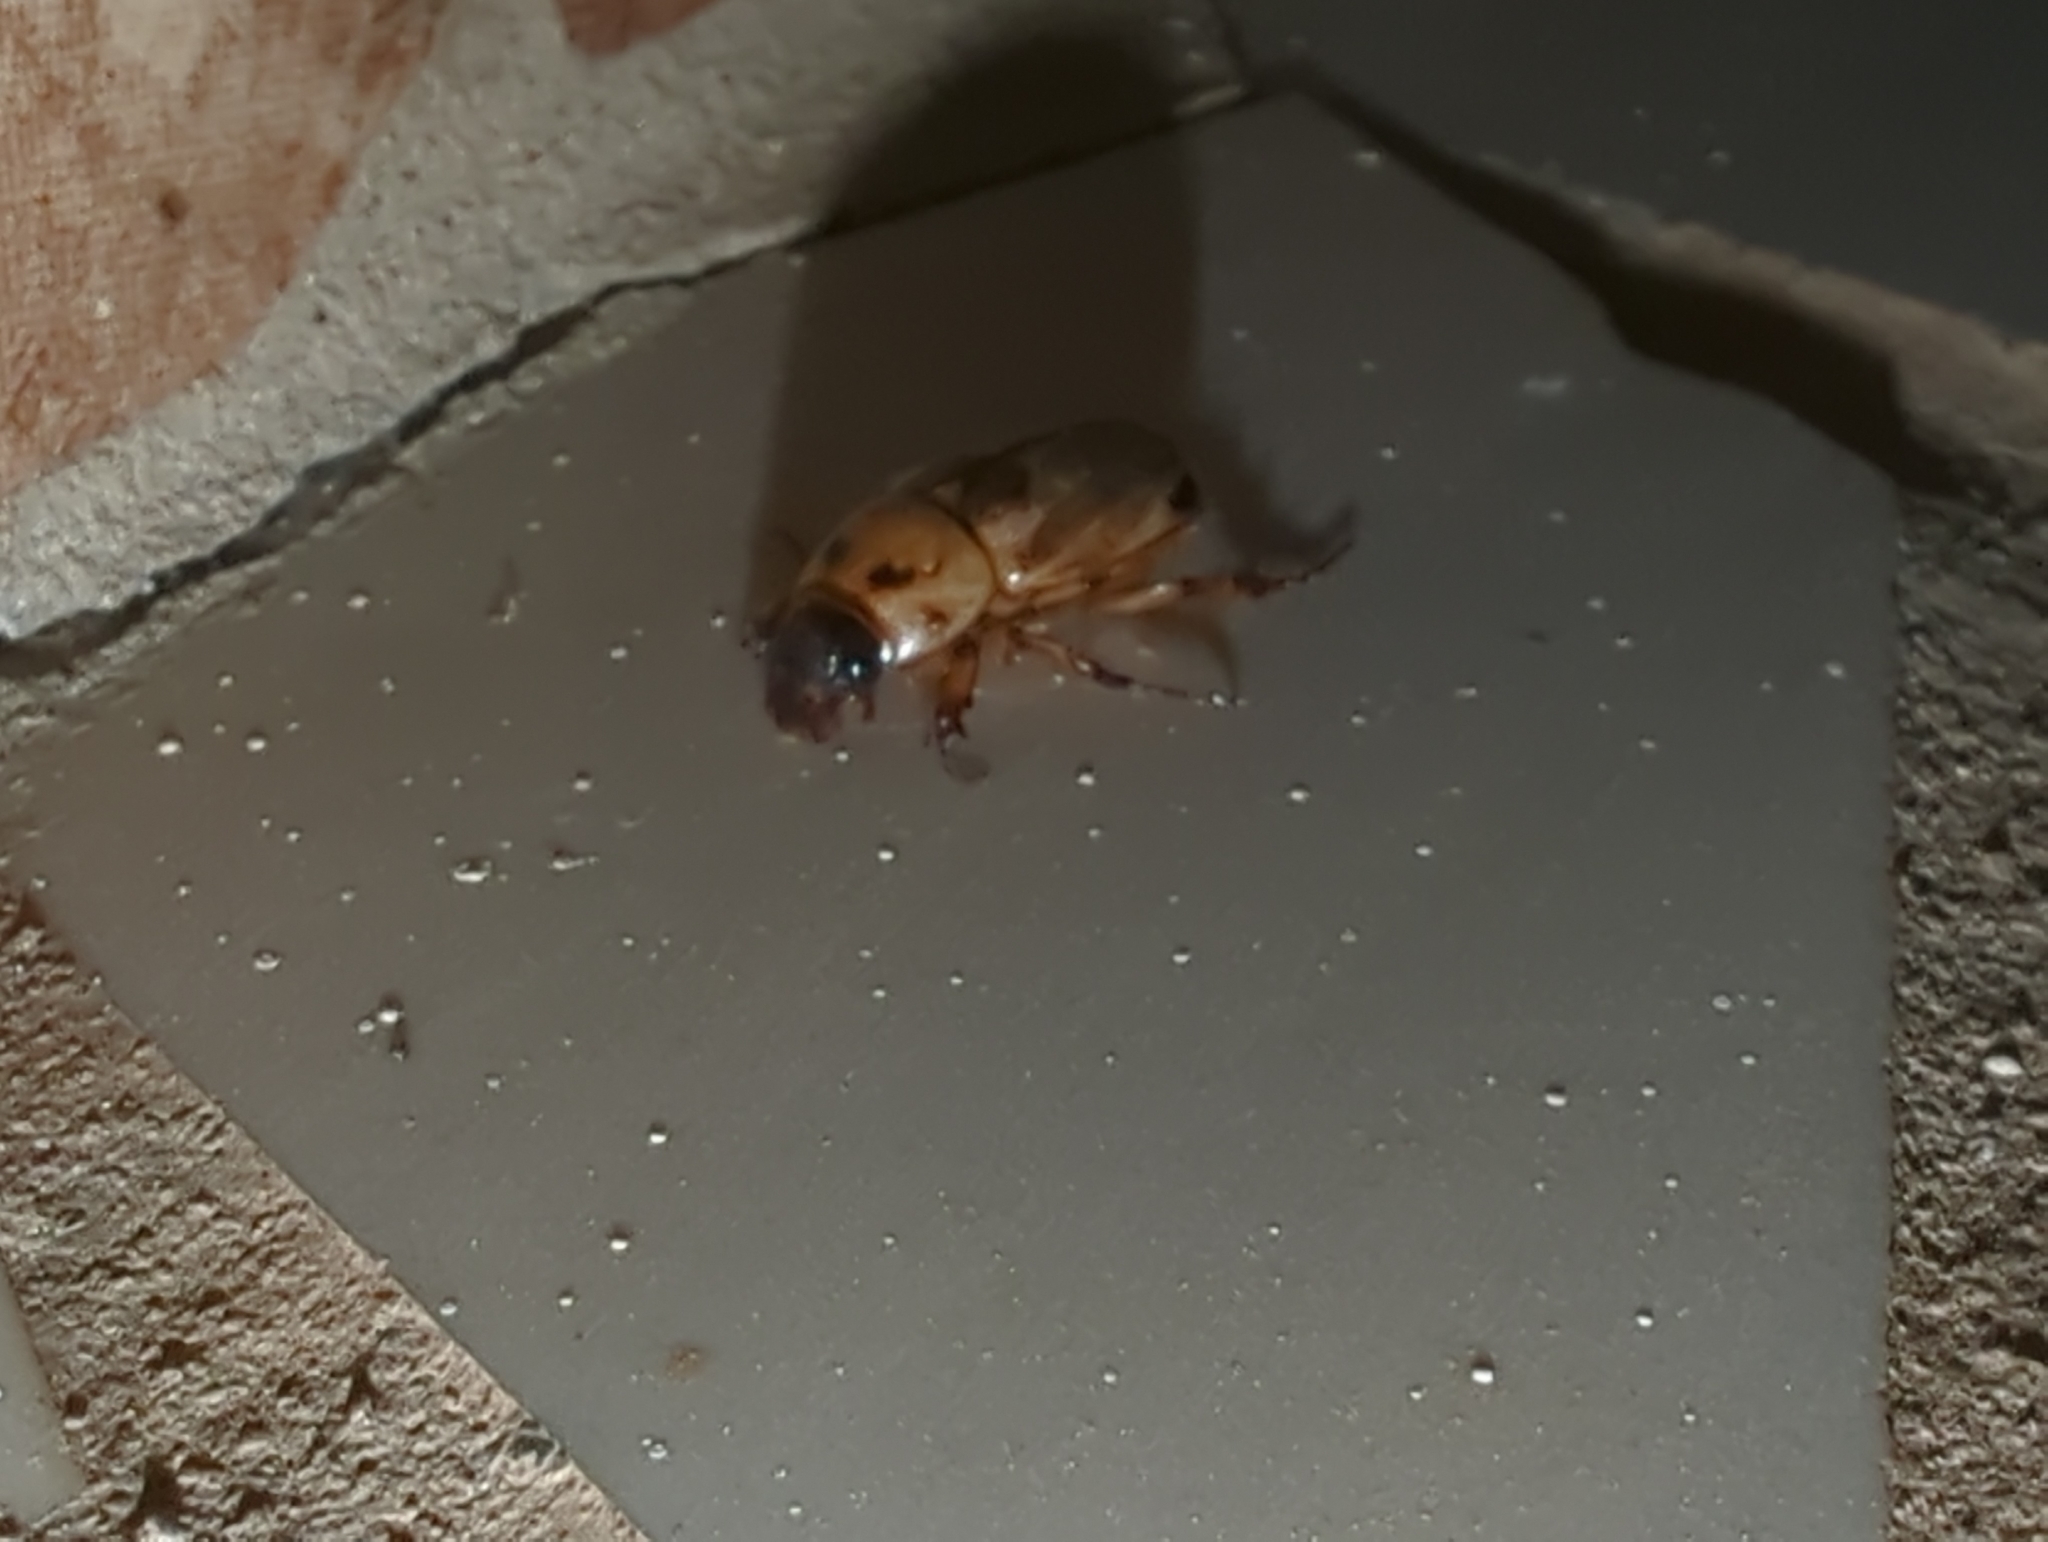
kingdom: Animalia
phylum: Arthropoda
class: Insecta
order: Coleoptera
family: Scarabaeidae
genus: Cyclocephala
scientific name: Cyclocephala lunulata
